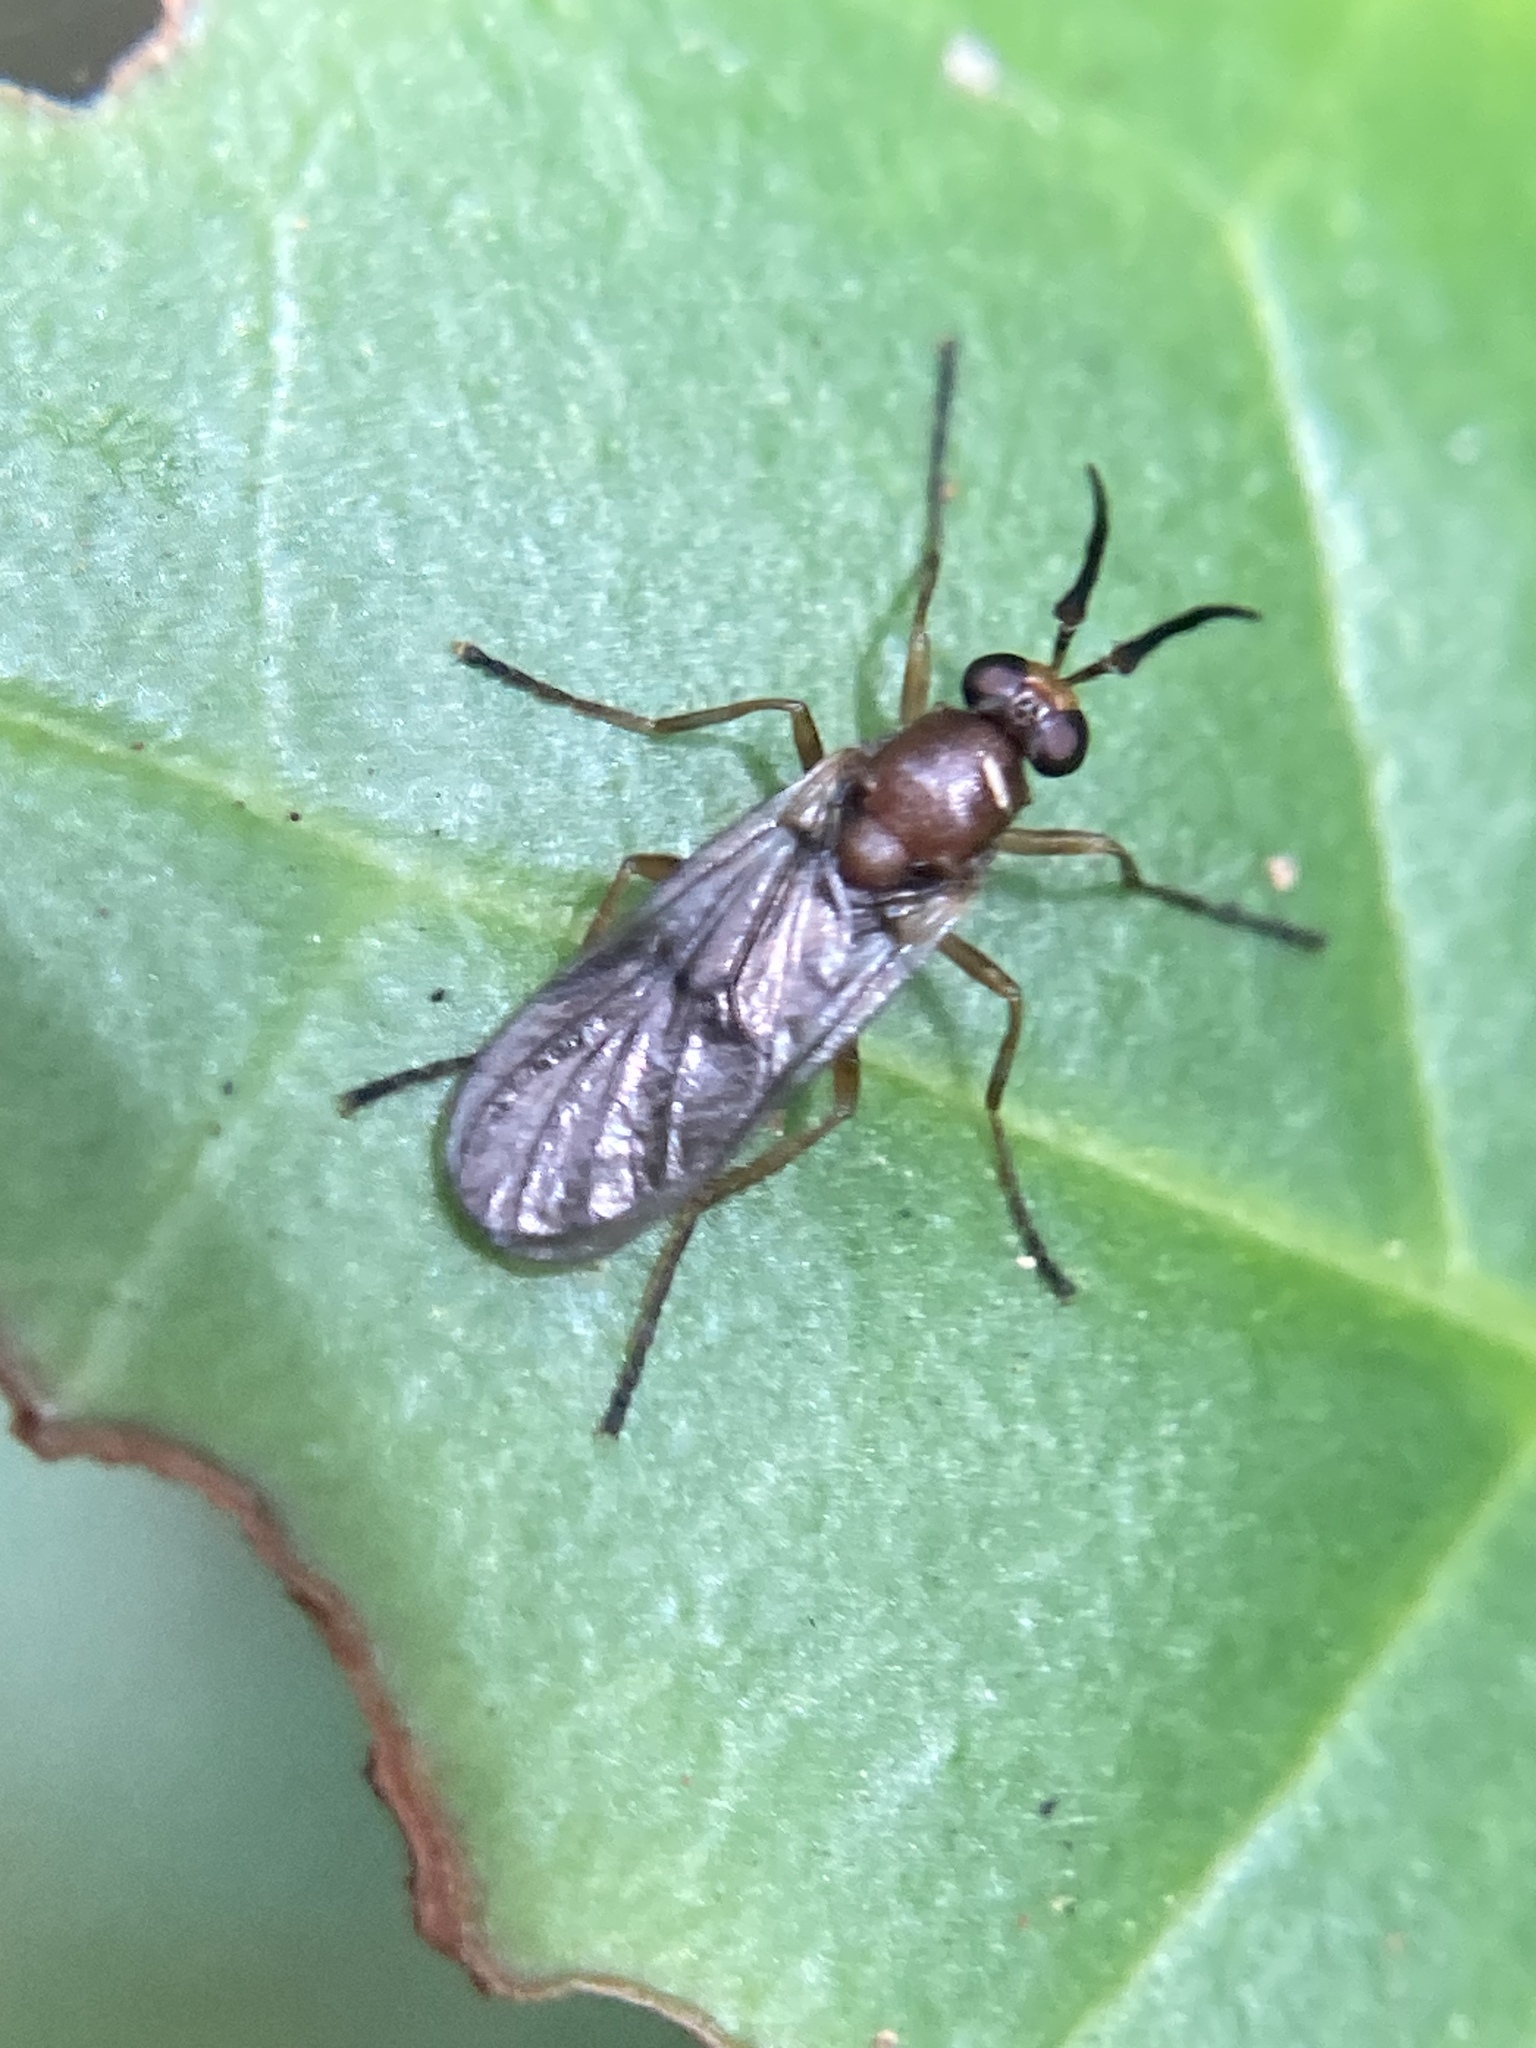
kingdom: Animalia
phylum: Arthropoda
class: Insecta
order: Diptera
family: Stratiomyidae
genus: Metridius
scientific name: Metridius mcalpinei
